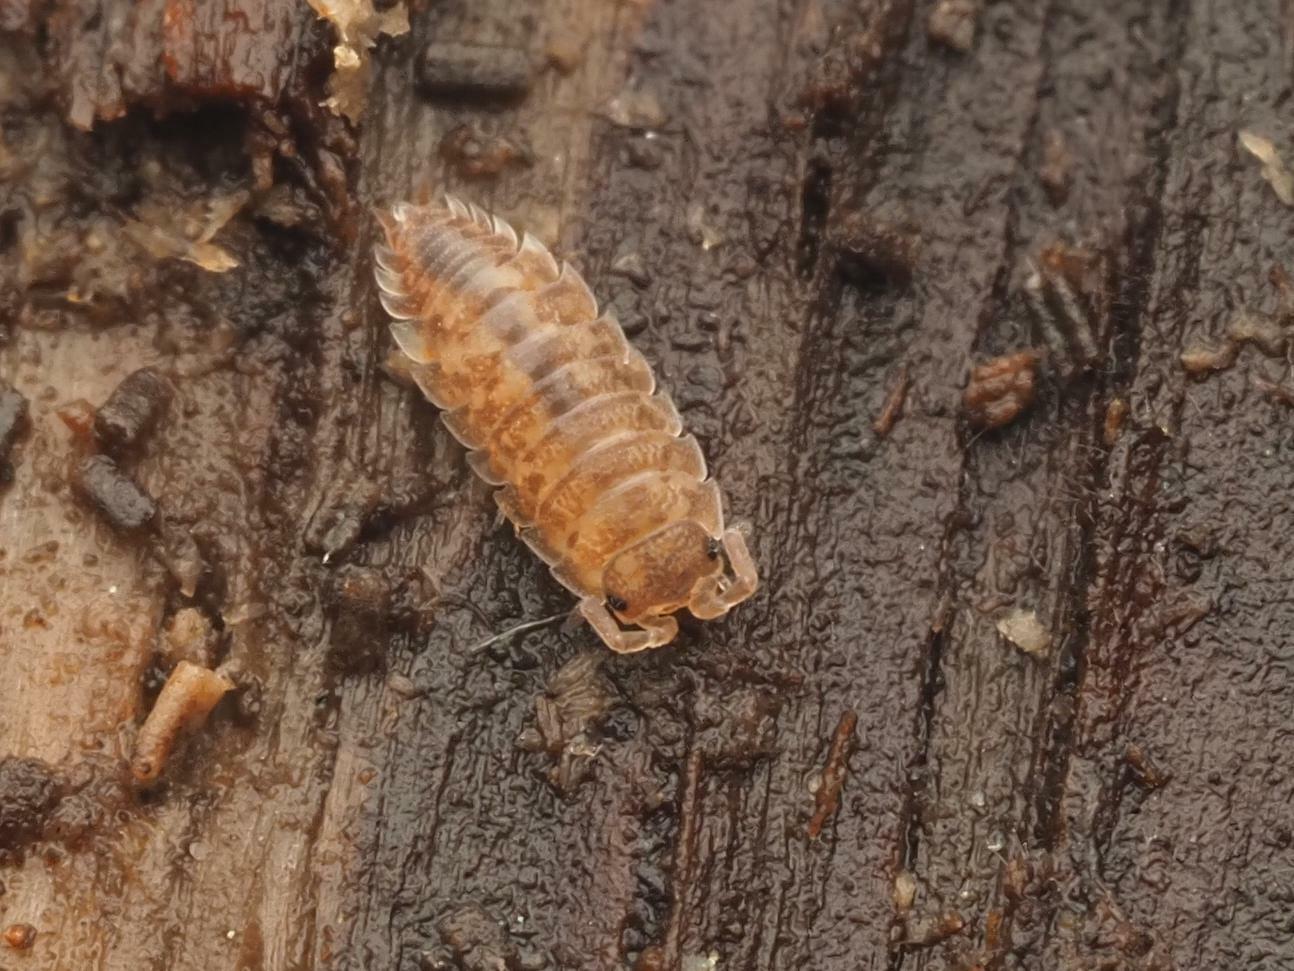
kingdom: Animalia
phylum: Arthropoda
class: Malacostraca
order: Isopoda
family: Porcellionidae
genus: Porcellio
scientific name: Porcellio scaber
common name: Common rough woodlouse
